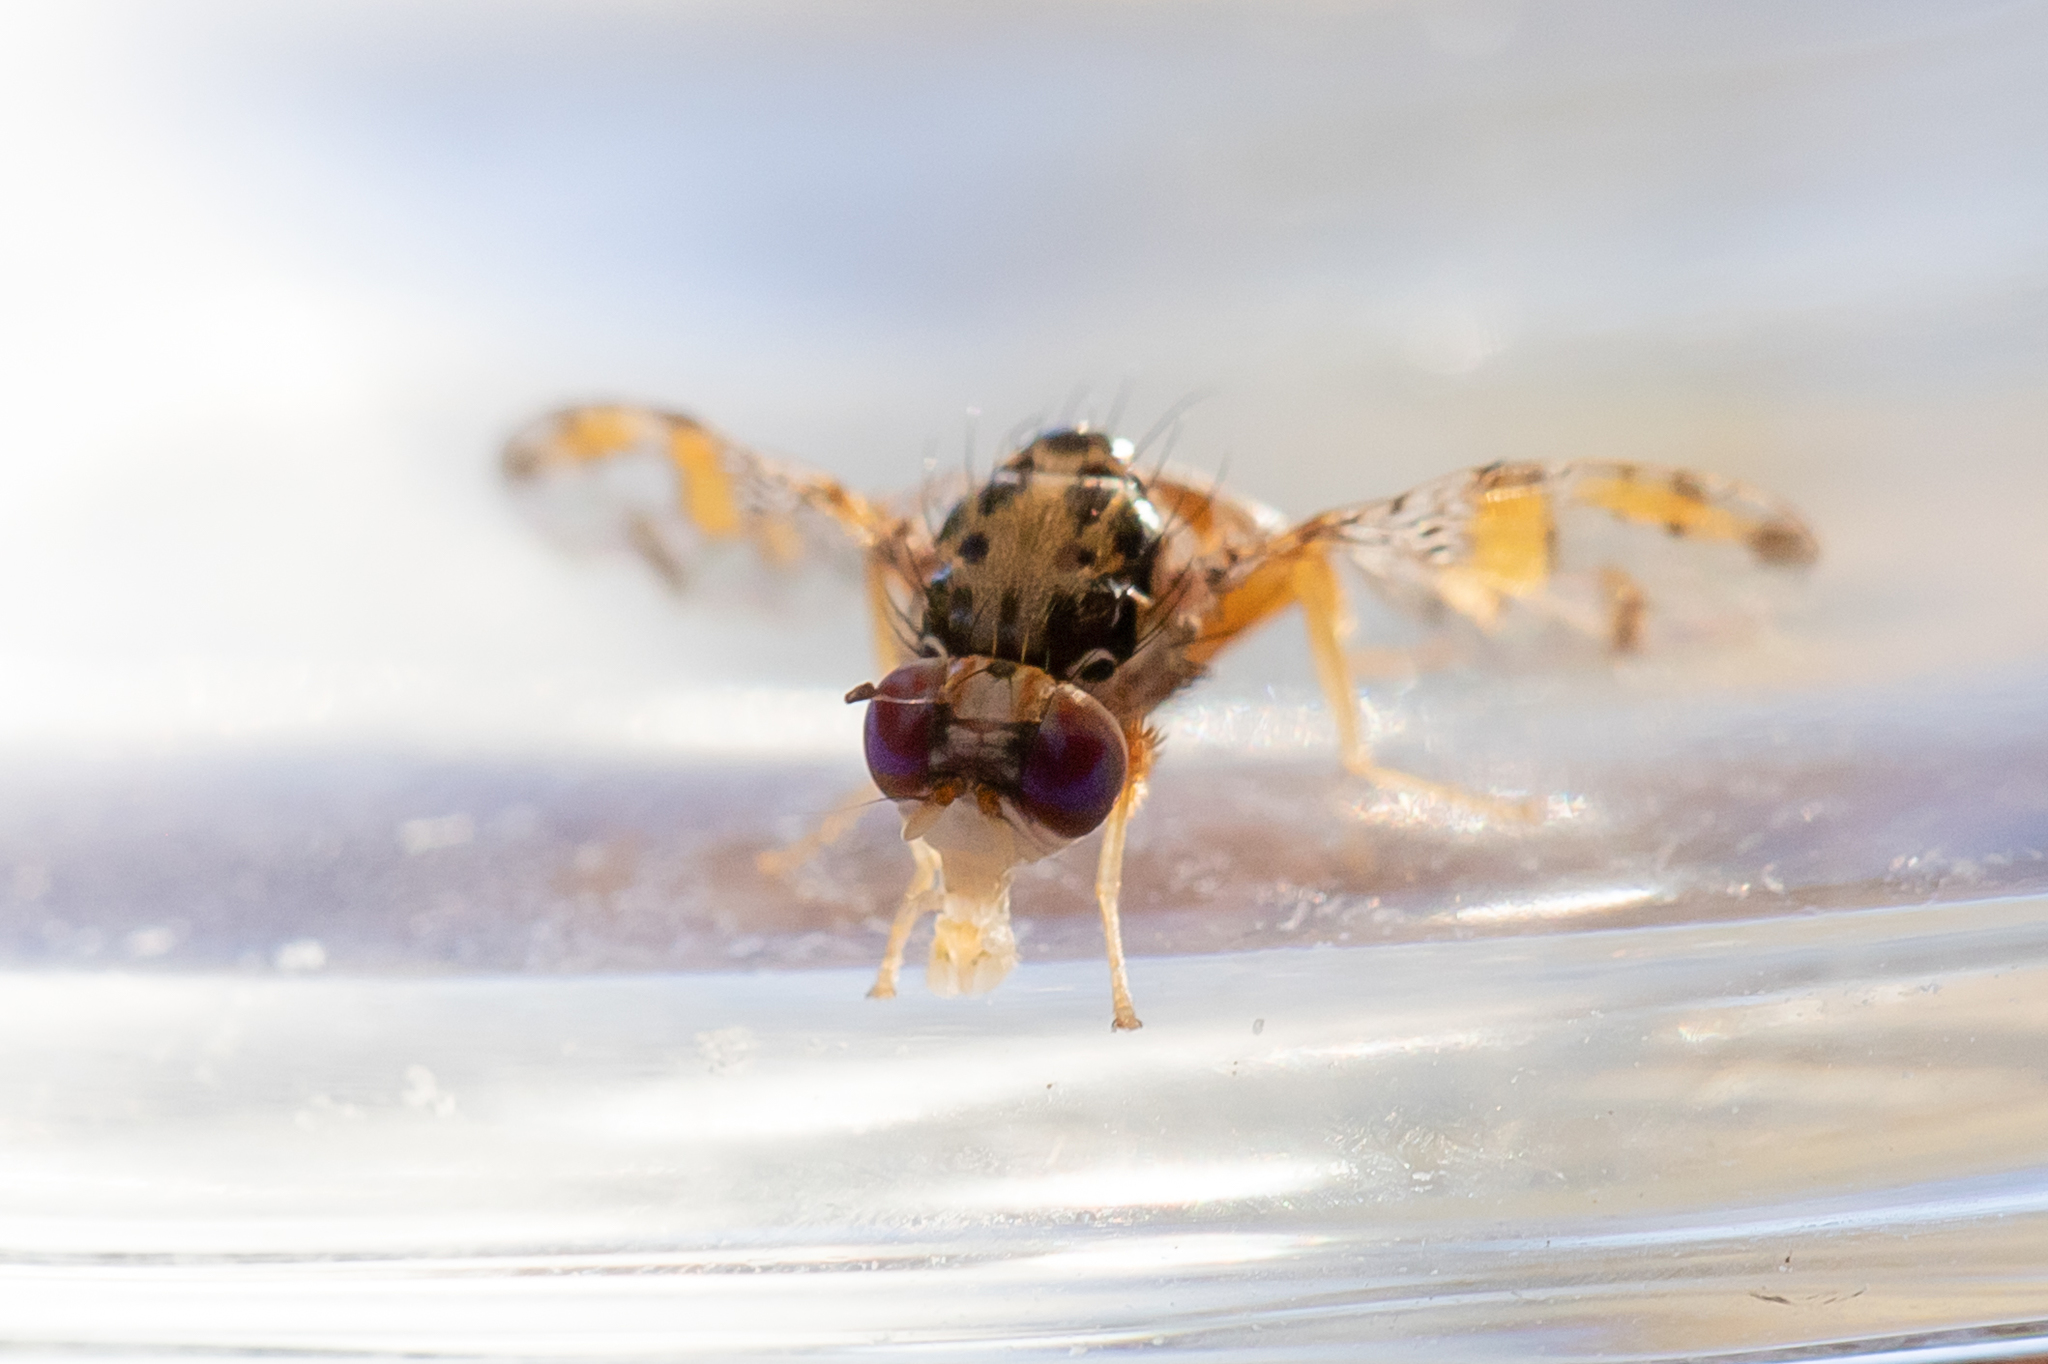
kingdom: Animalia
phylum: Arthropoda
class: Insecta
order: Diptera
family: Tephritidae
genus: Ceratitis
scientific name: Ceratitis capitata
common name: Mediterranean fruit fly
